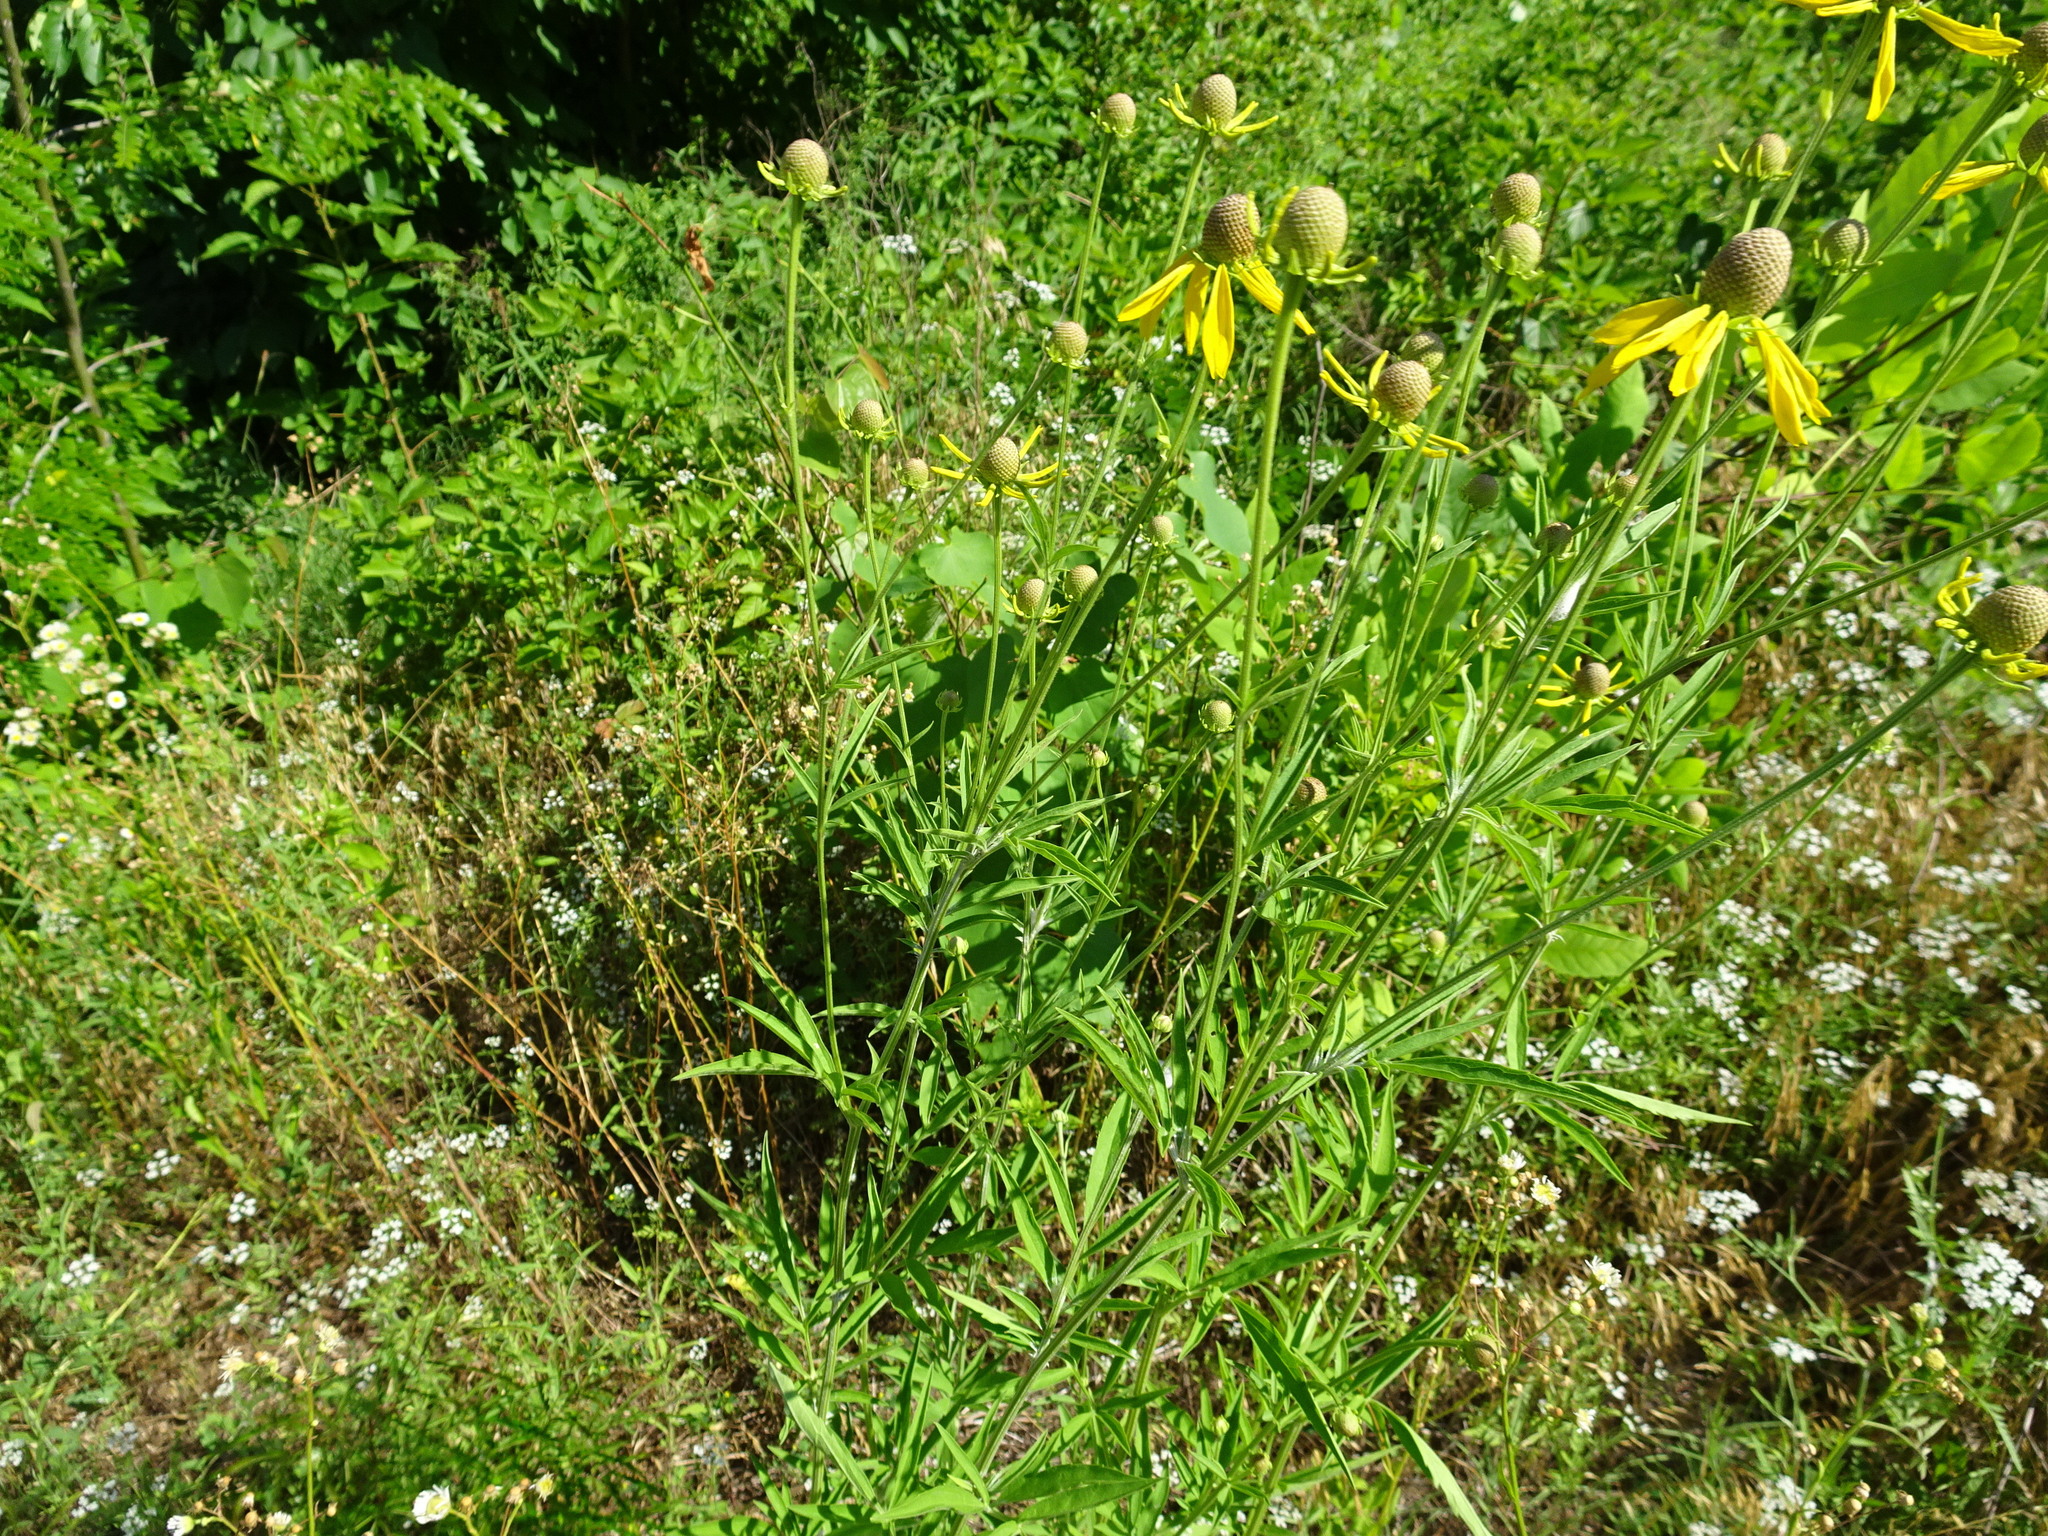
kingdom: Plantae
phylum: Tracheophyta
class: Magnoliopsida
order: Asterales
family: Asteraceae
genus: Ratibida
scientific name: Ratibida pinnata
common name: Drooping prairie-coneflower
